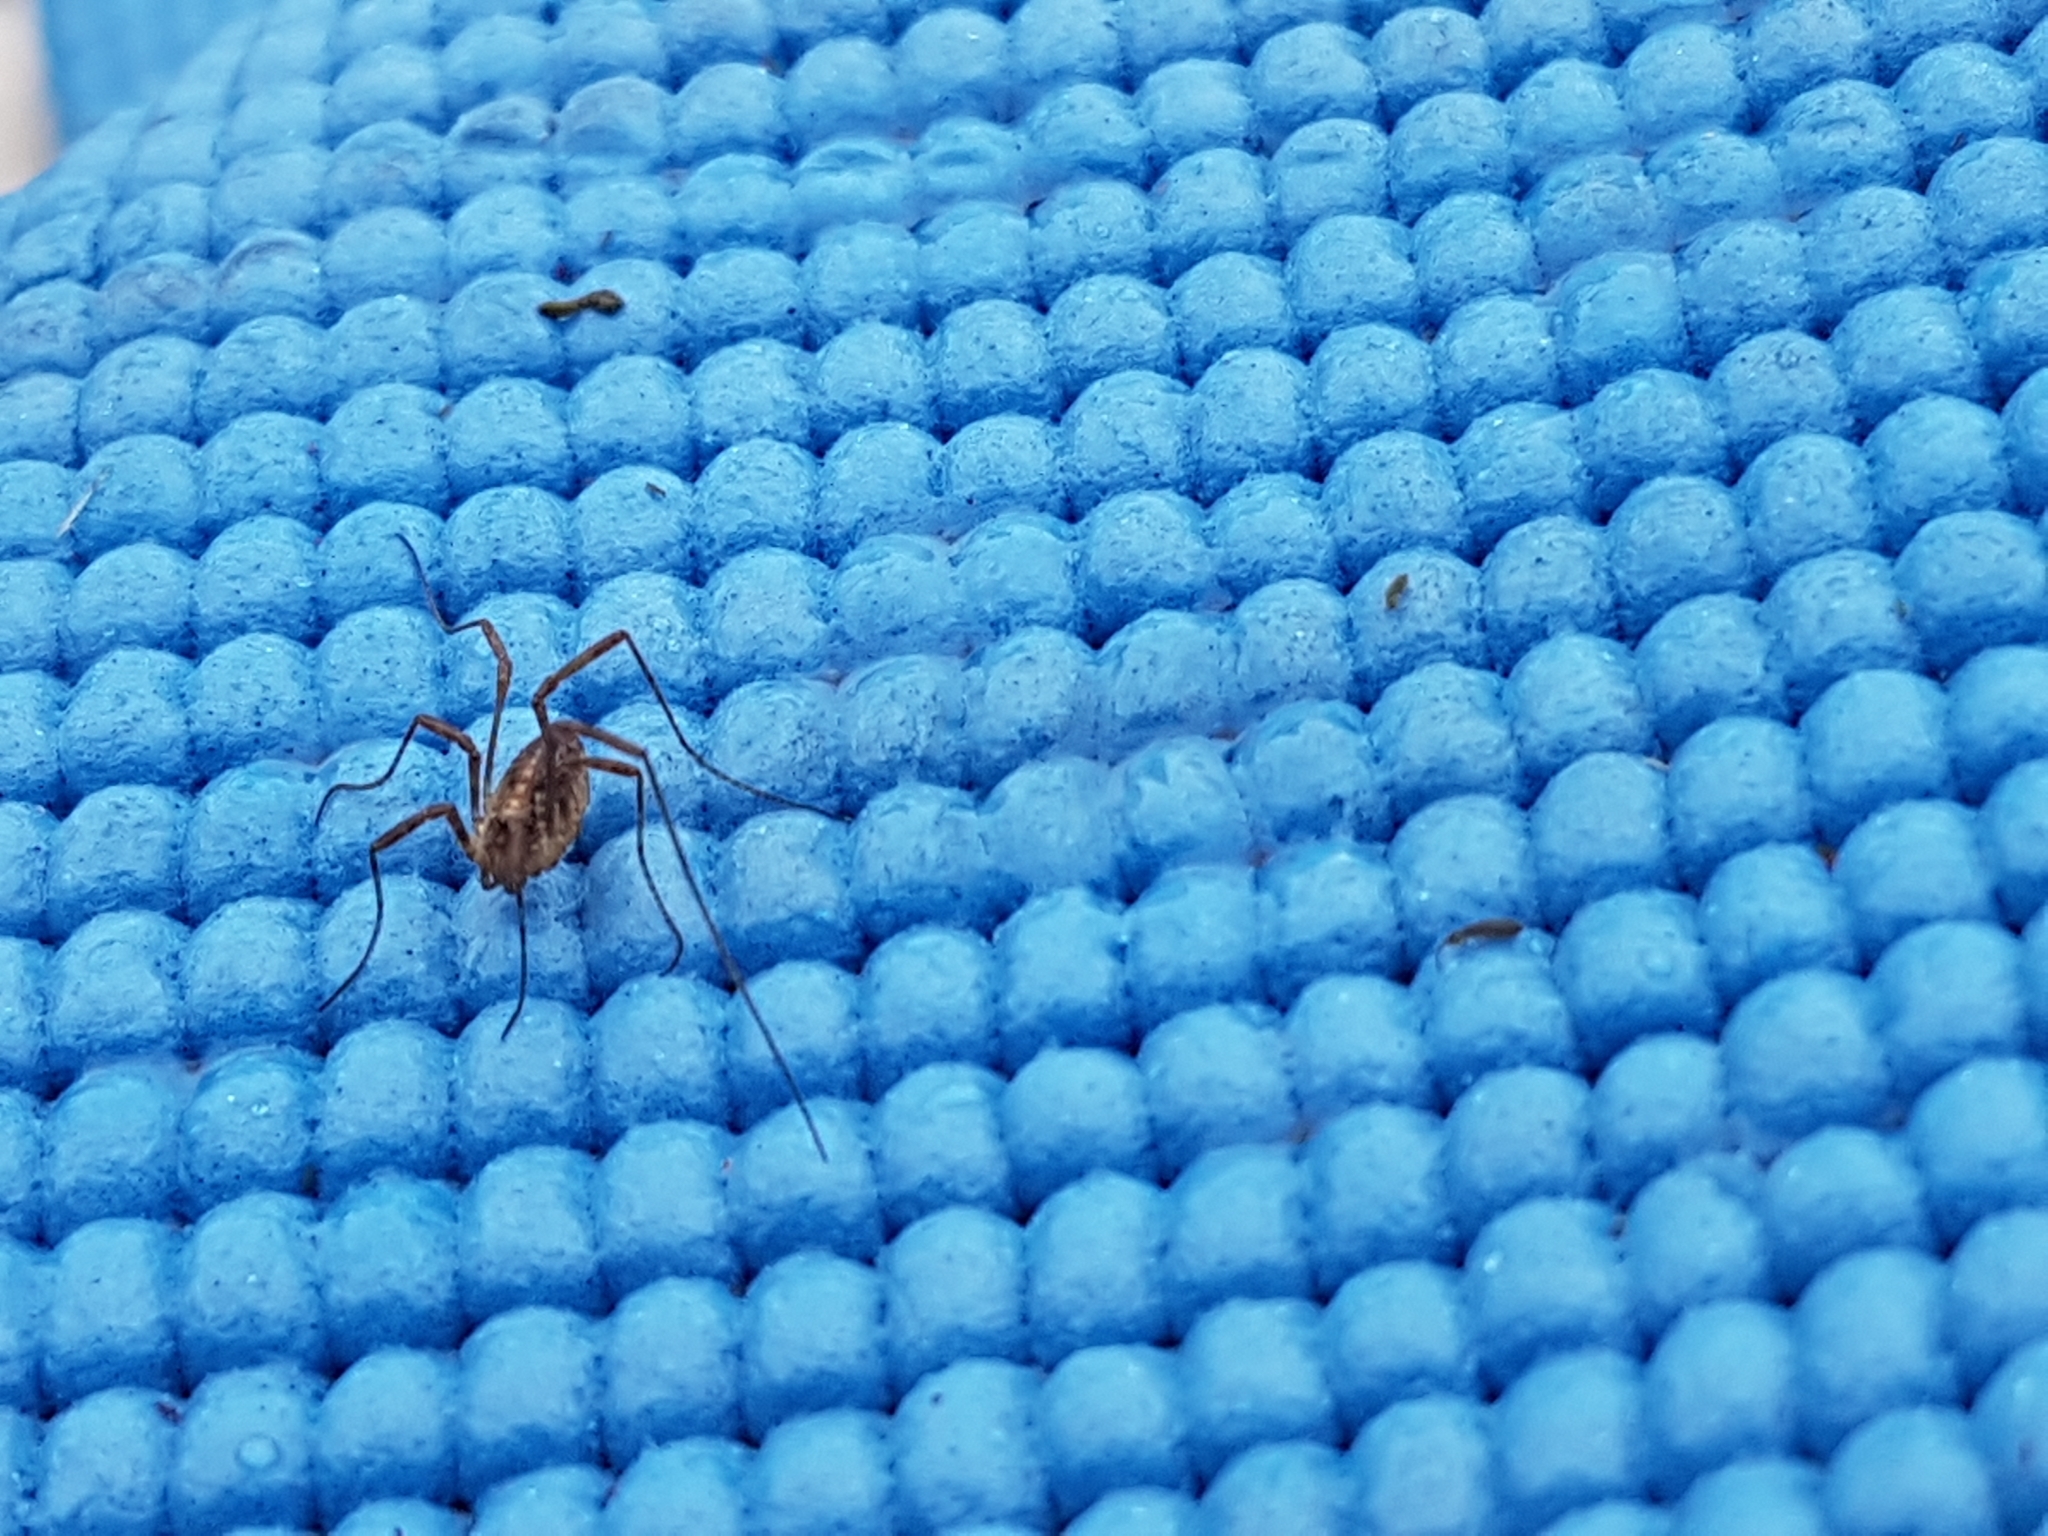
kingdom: Animalia
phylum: Arthropoda
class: Arachnida
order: Opiliones
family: Phalangiidae
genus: Paroligolophus
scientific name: Paroligolophus agrestis
